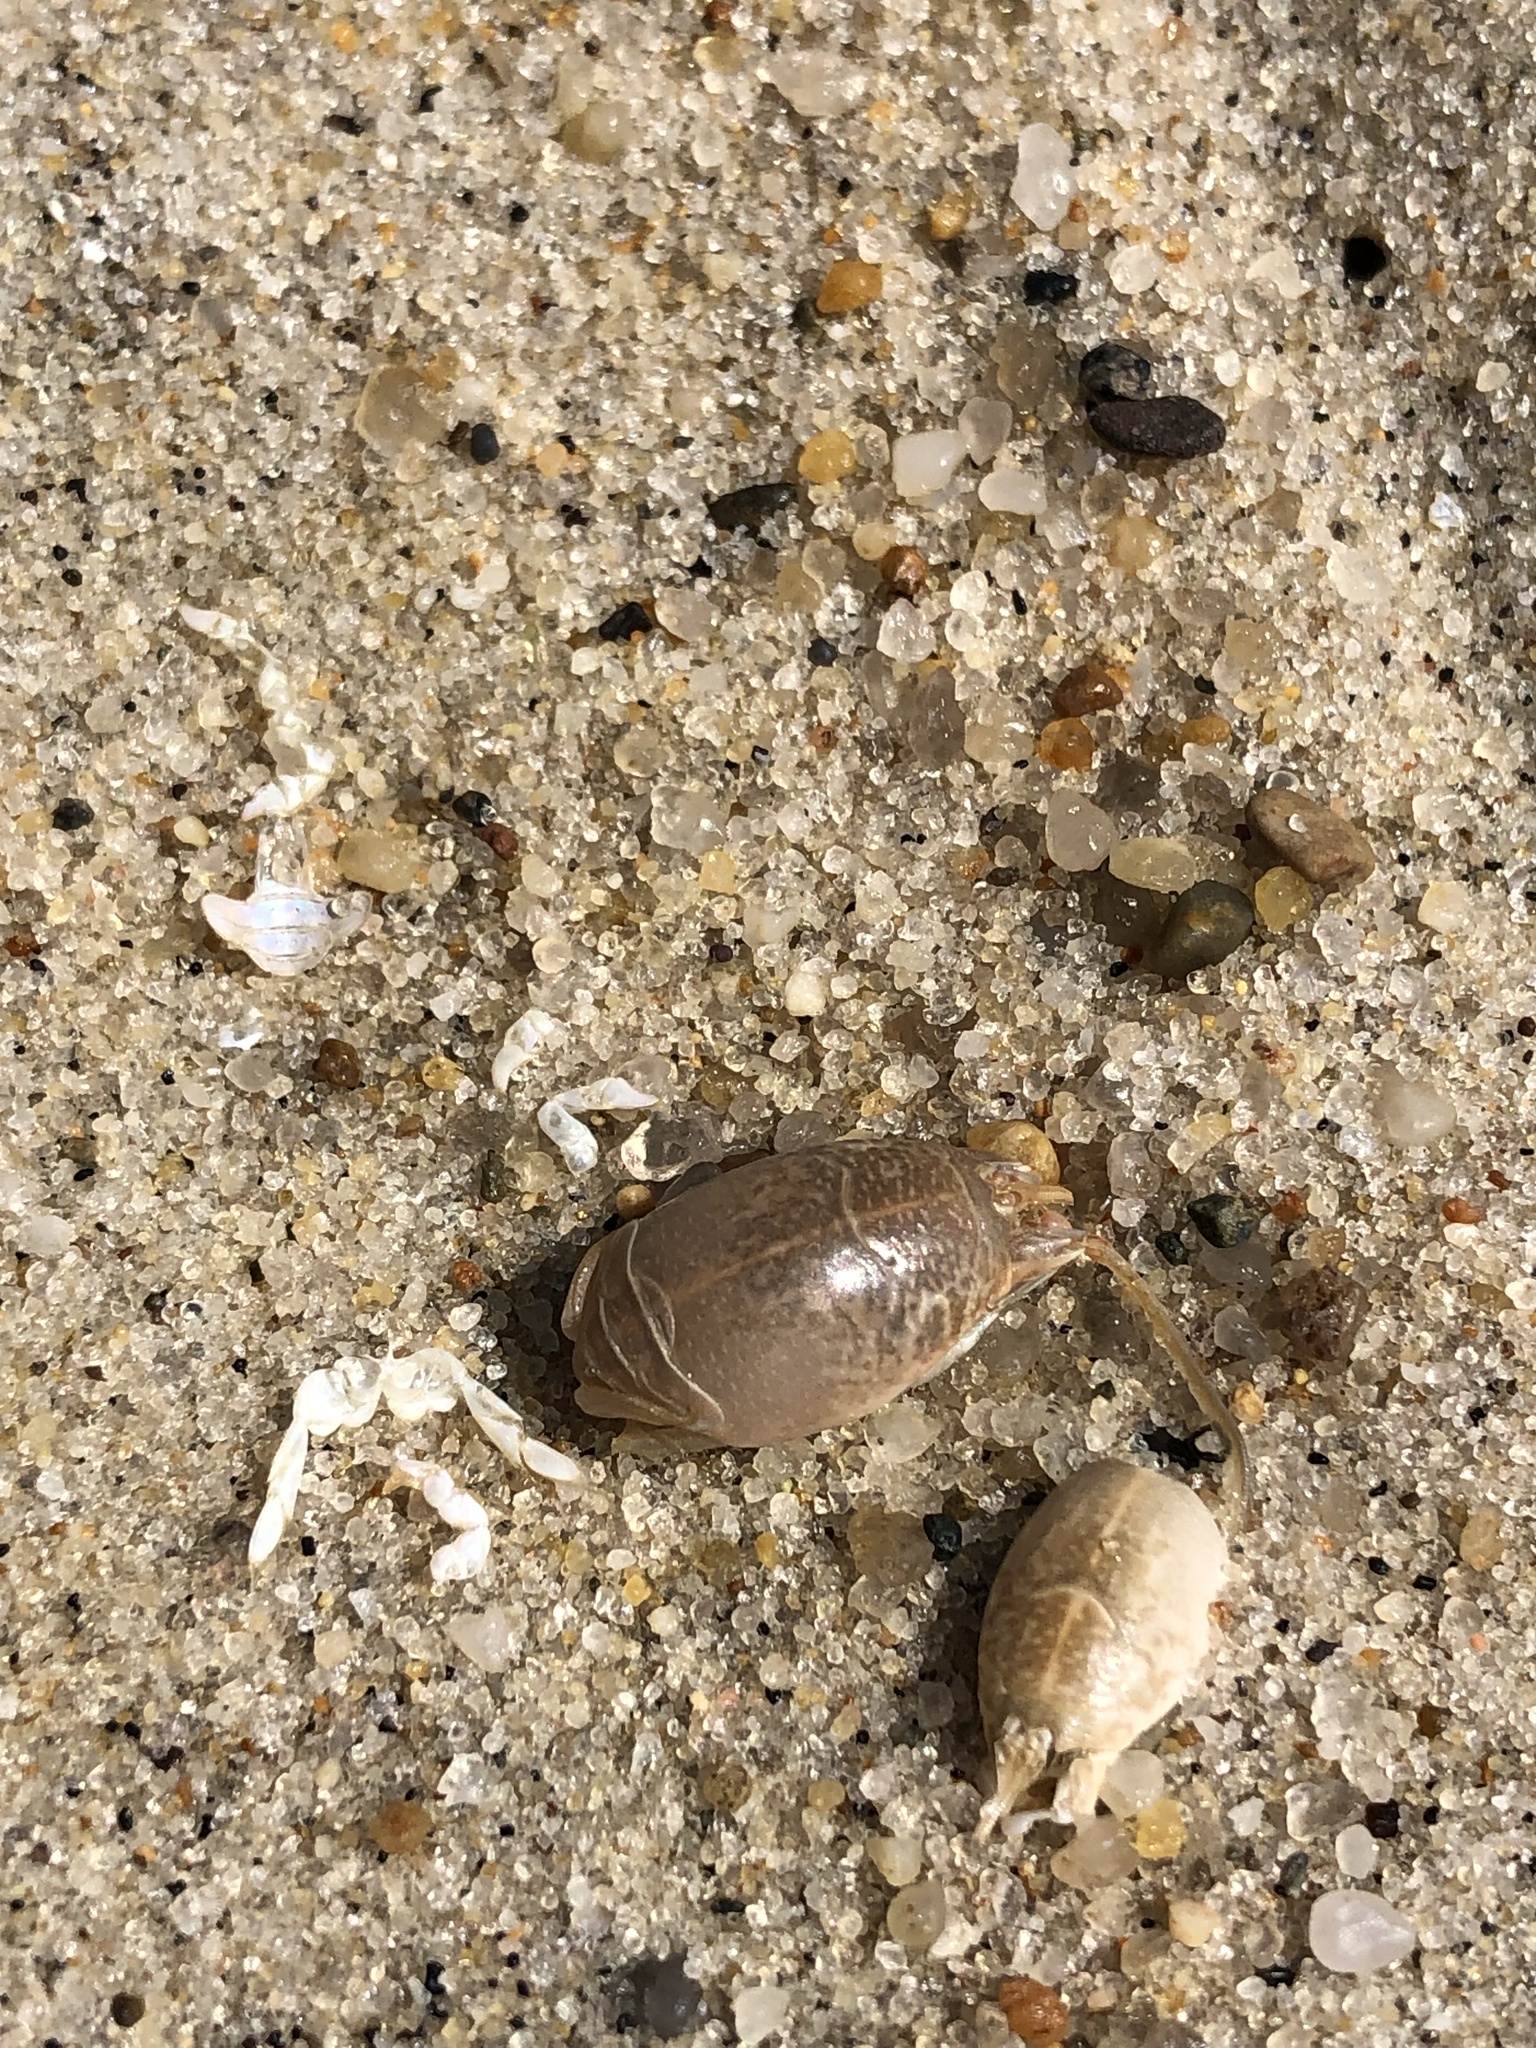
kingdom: Animalia
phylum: Arthropoda
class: Malacostraca
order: Decapoda
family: Hippidae
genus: Emerita
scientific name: Emerita talpoida
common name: Atlantic sand crab
